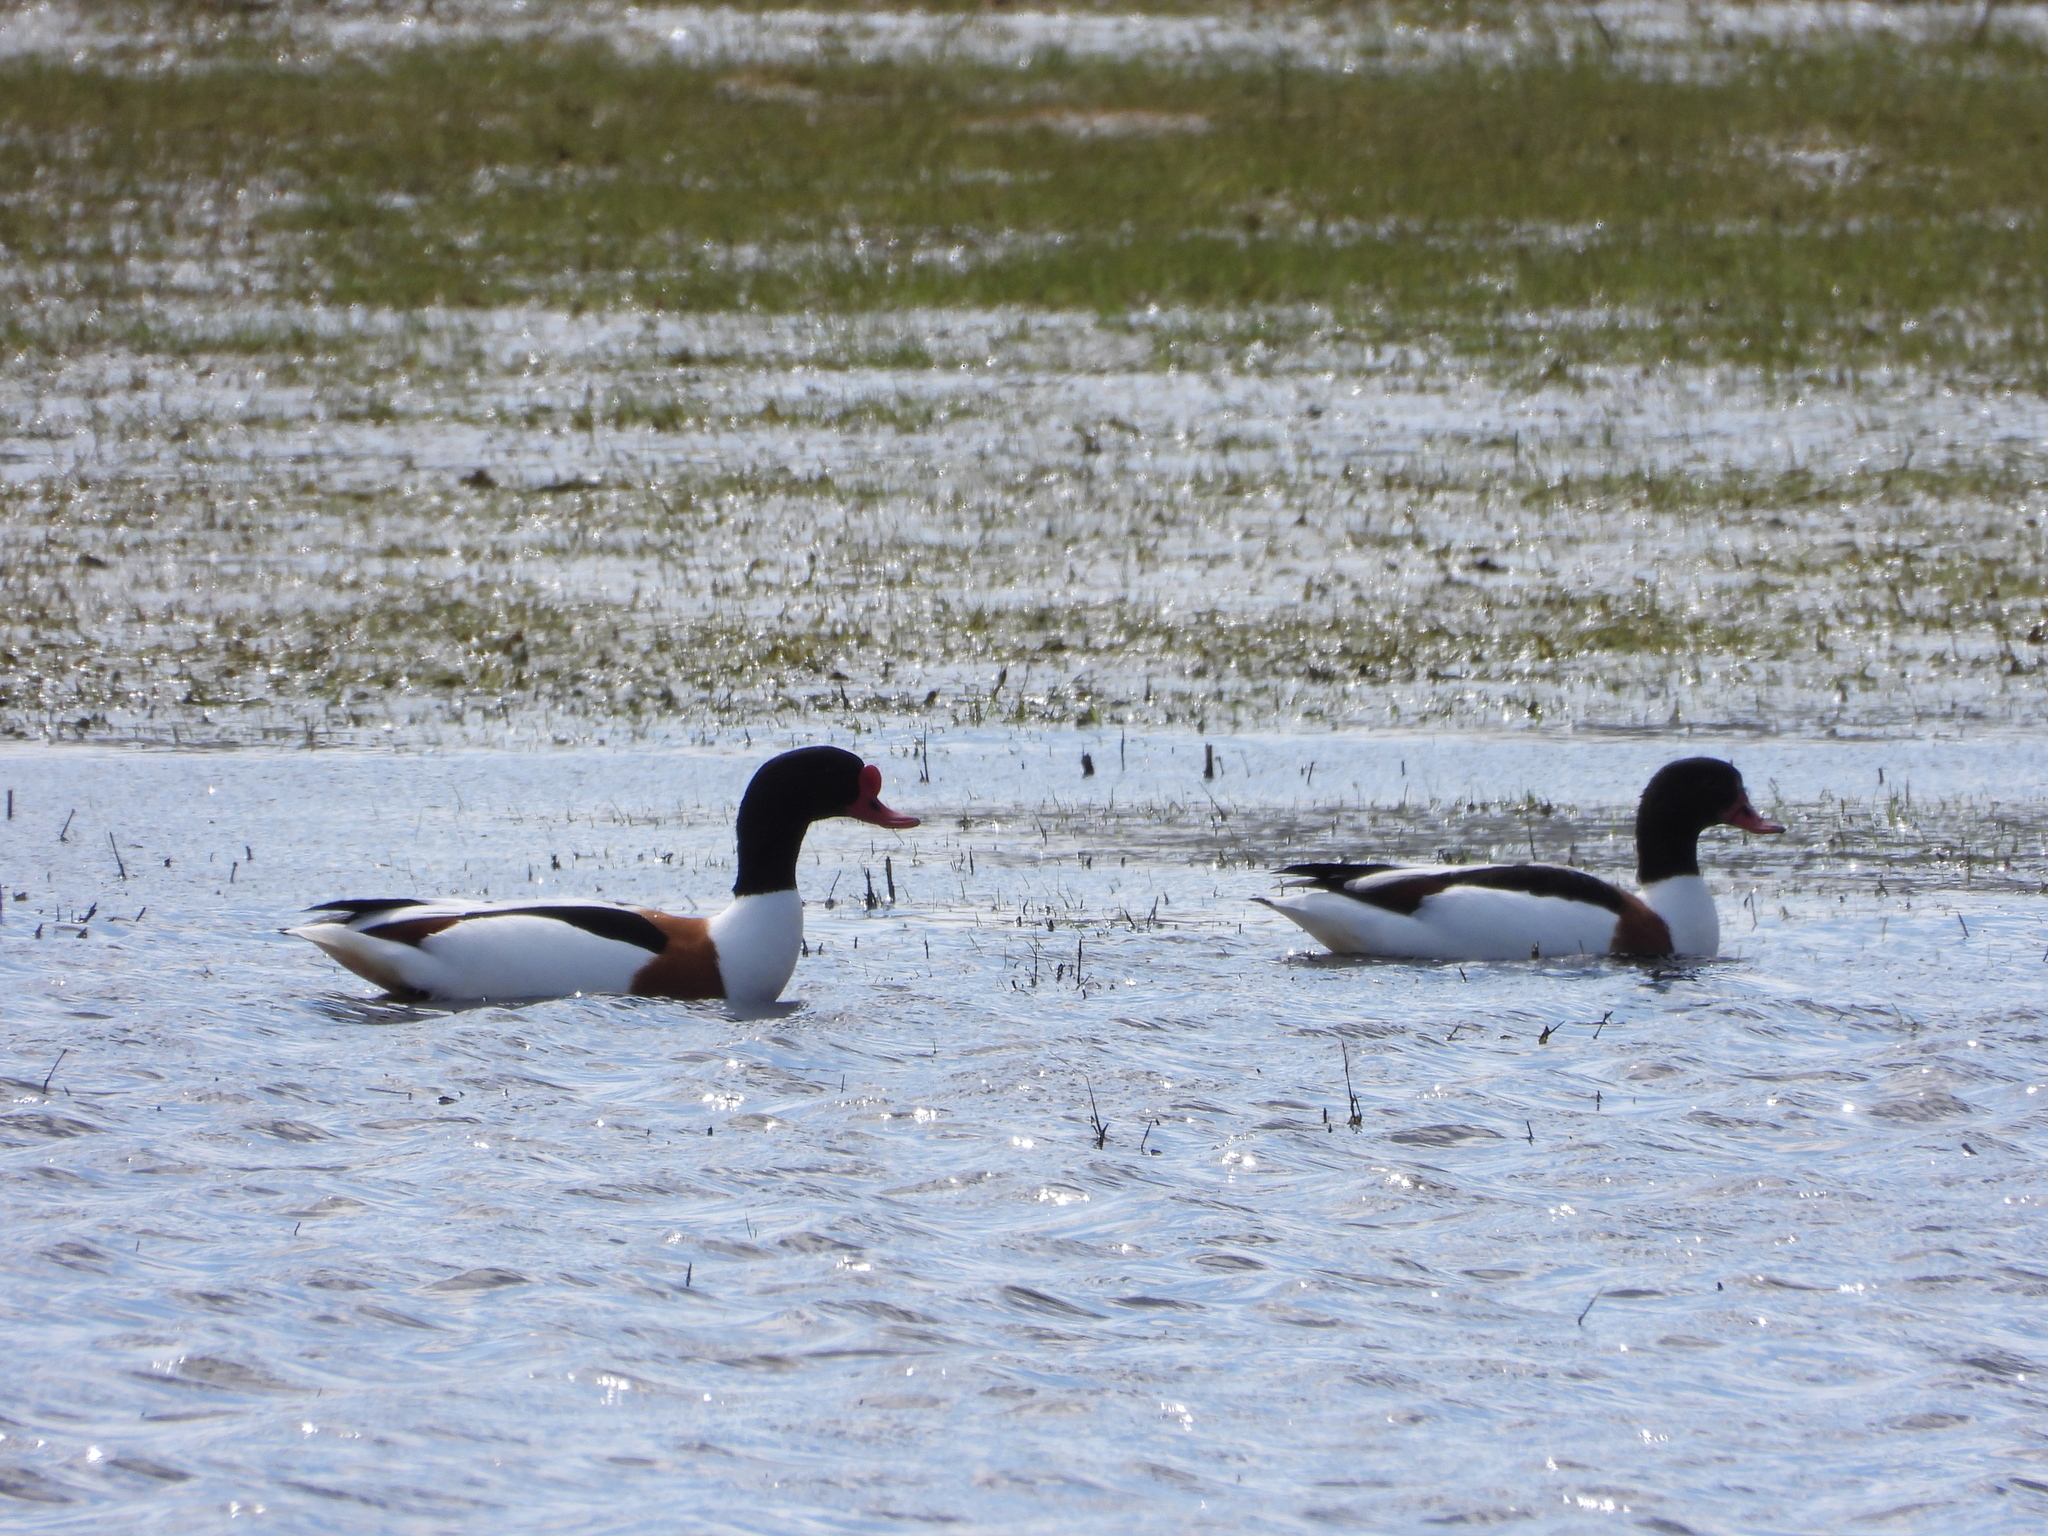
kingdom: Animalia
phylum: Chordata
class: Aves
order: Anseriformes
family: Anatidae
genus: Tadorna
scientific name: Tadorna tadorna
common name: Common shelduck
